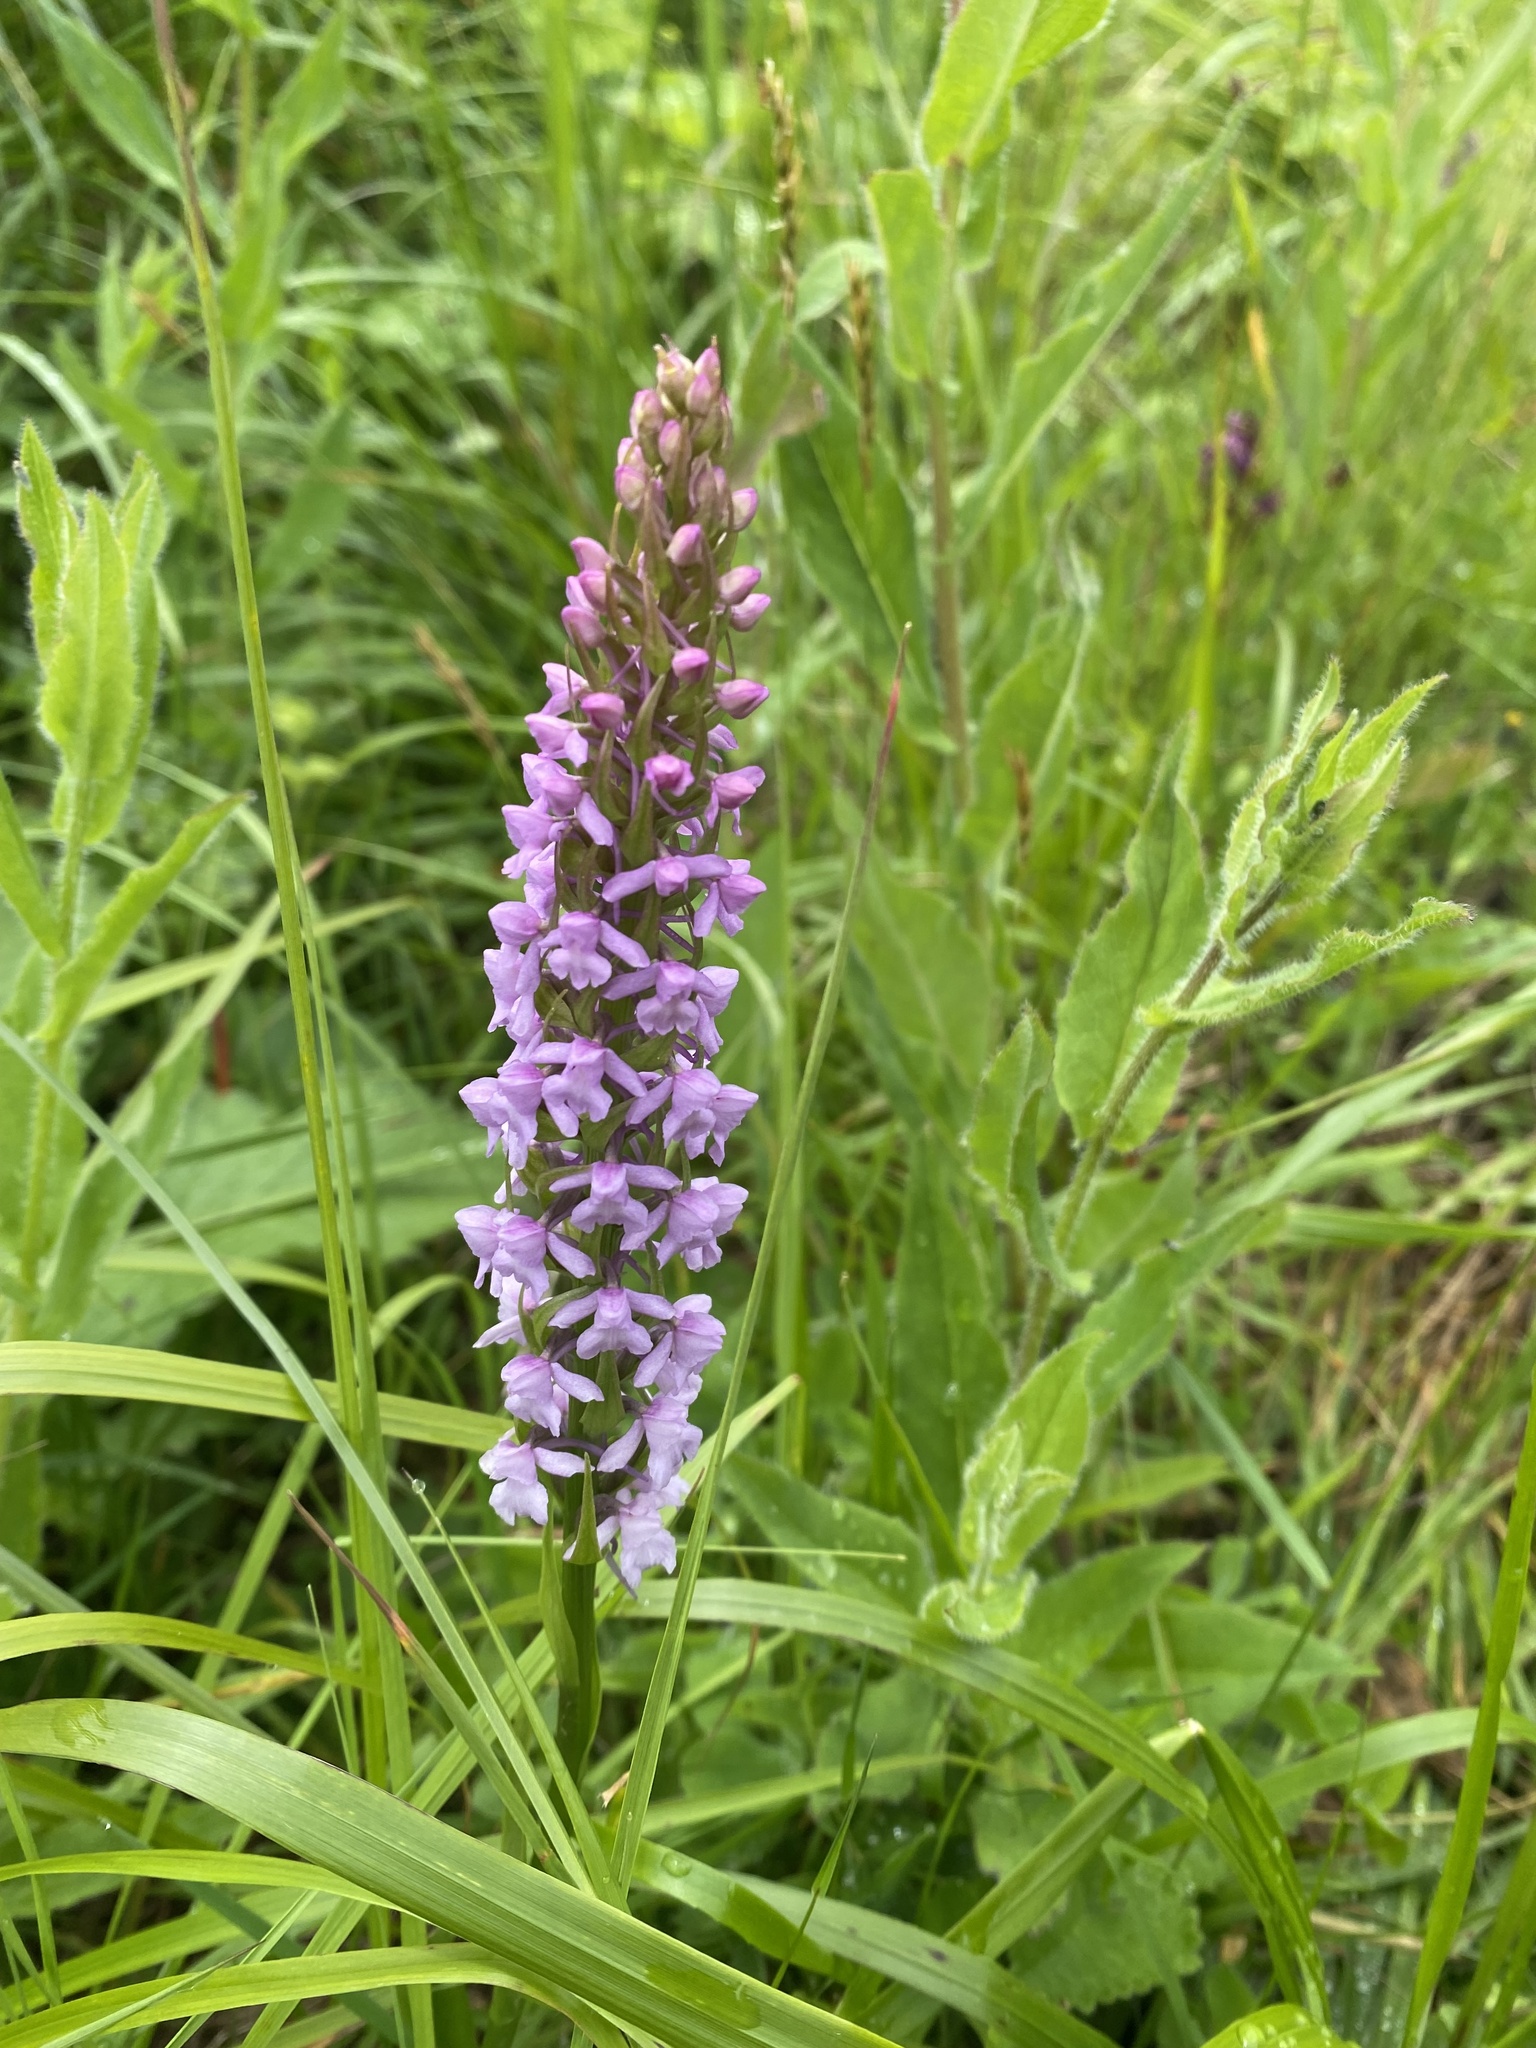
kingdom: Plantae
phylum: Tracheophyta
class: Liliopsida
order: Asparagales
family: Orchidaceae
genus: Gymnadenia
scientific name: Gymnadenia conopsea
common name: Fragrant orchid
